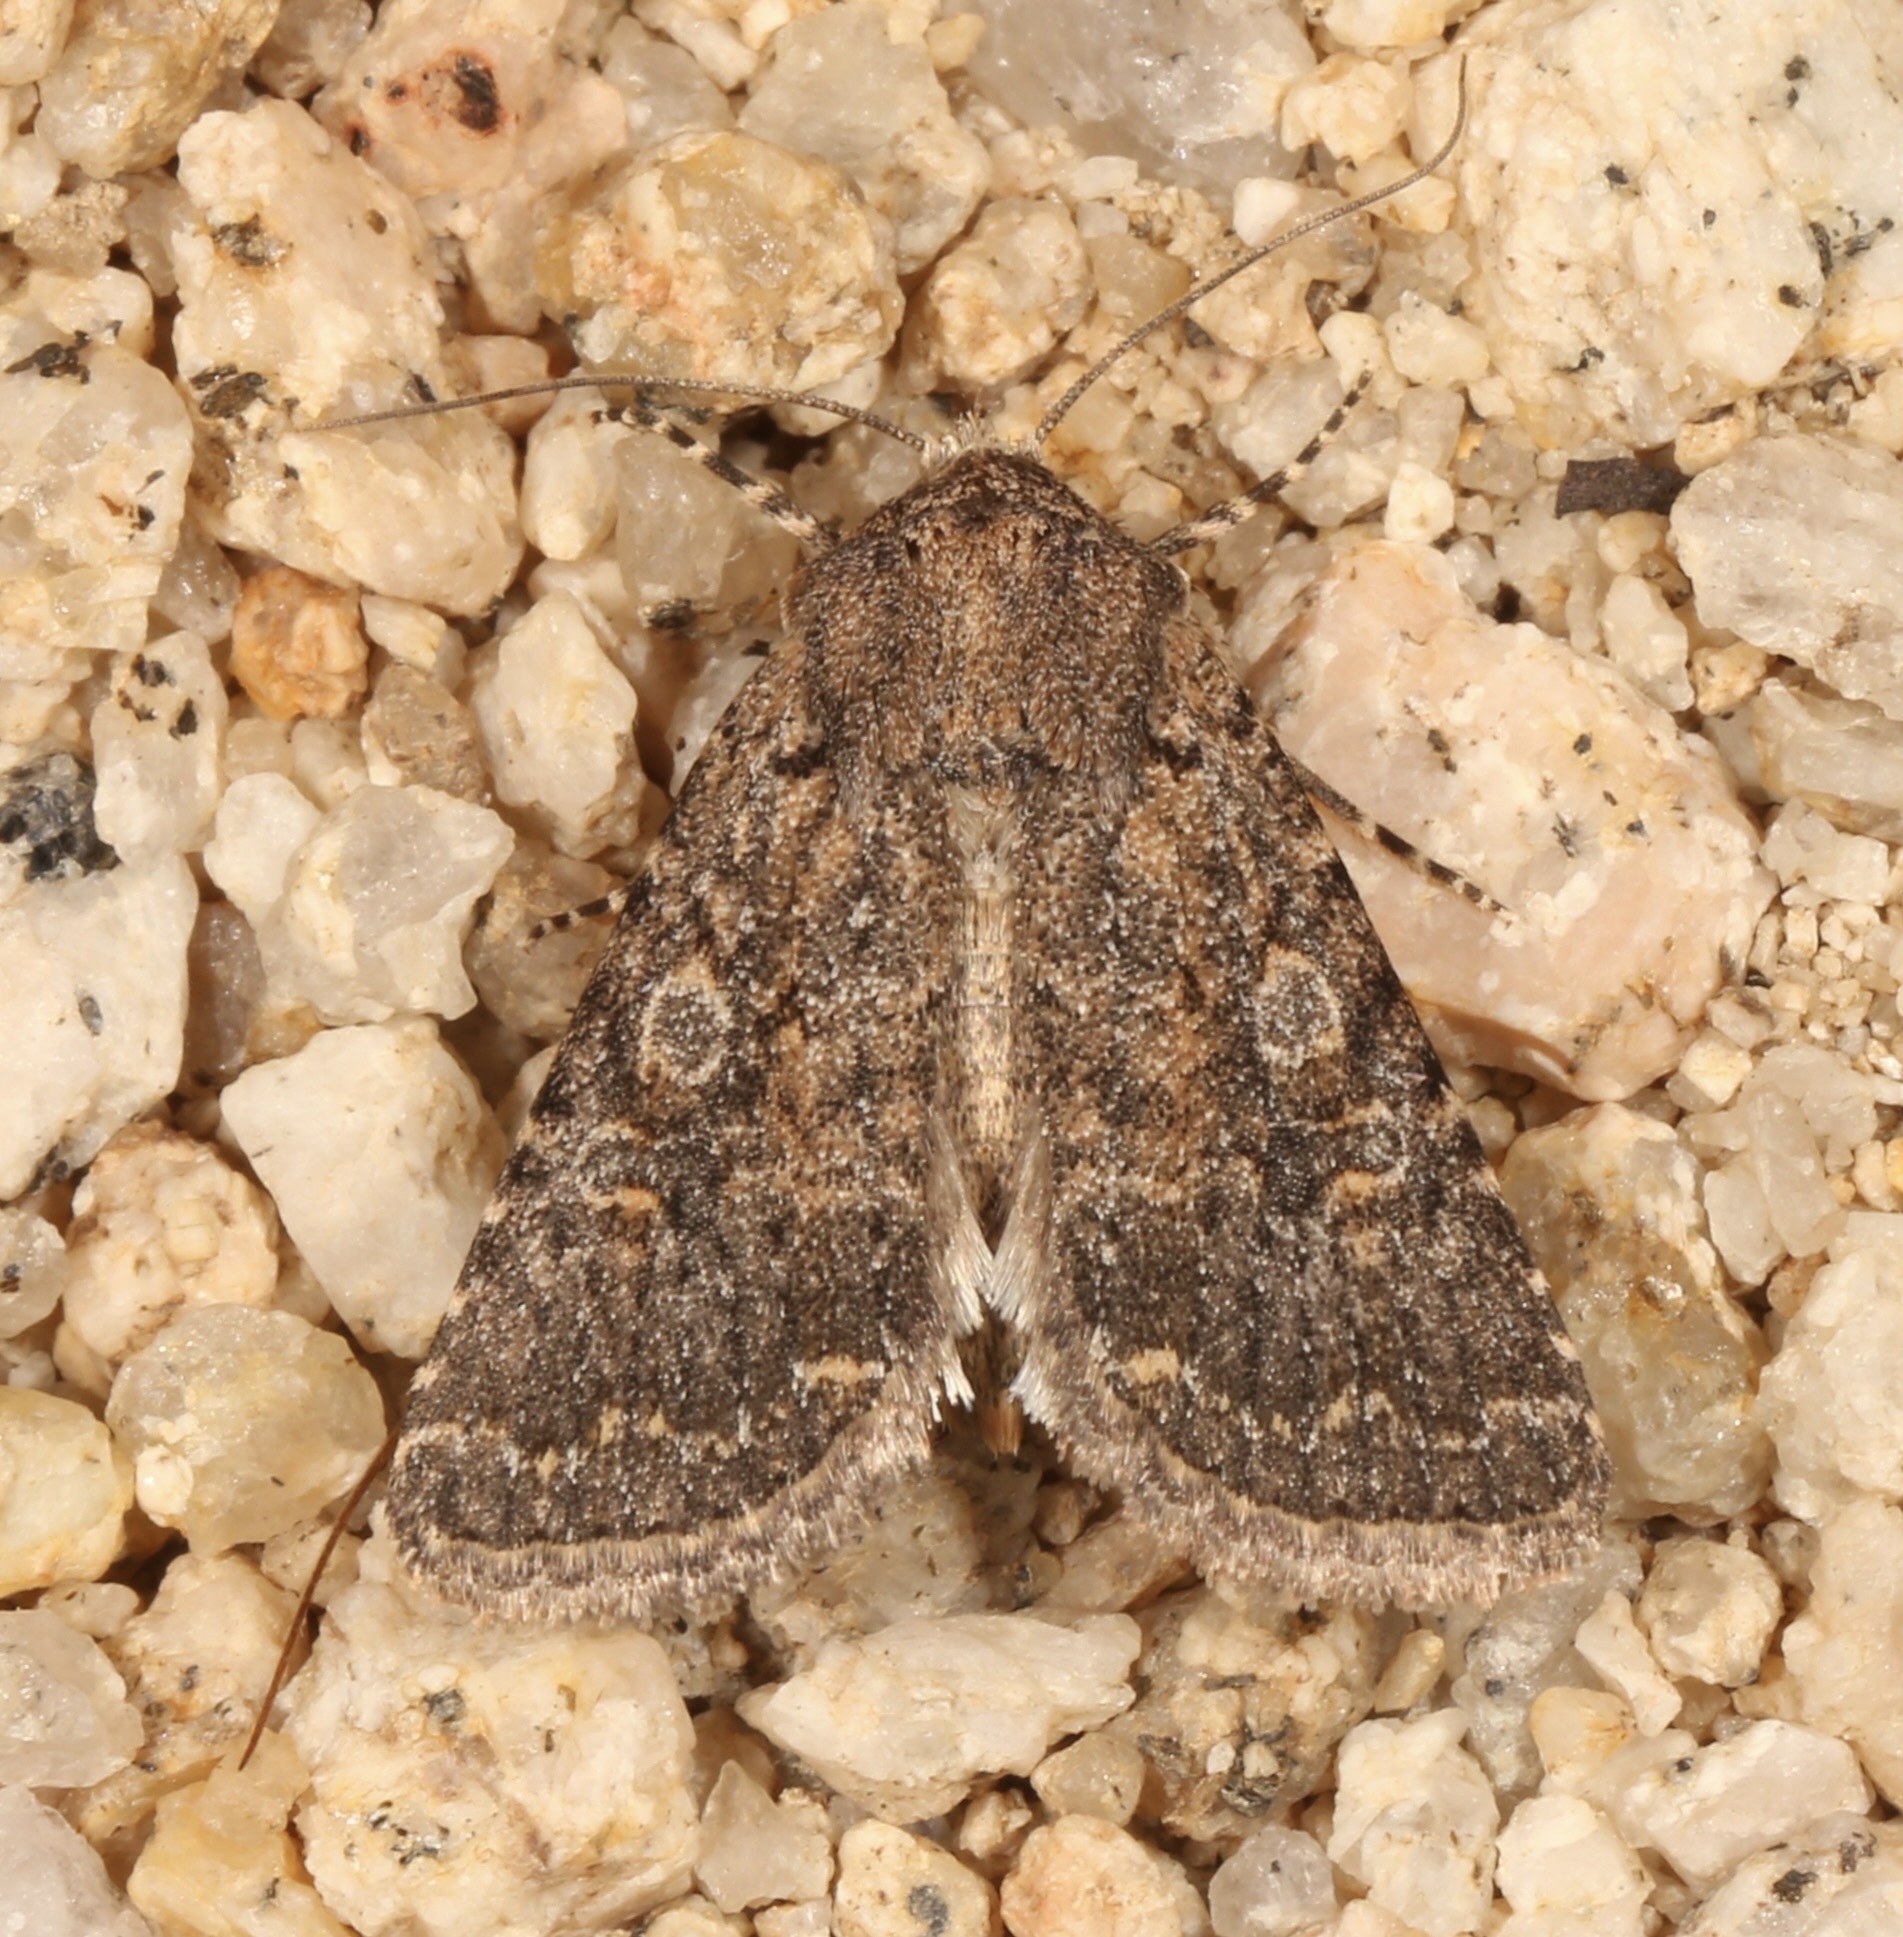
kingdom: Animalia
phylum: Arthropoda
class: Insecta
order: Lepidoptera
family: Noctuidae
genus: Trichopolia
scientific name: Trichopolia
